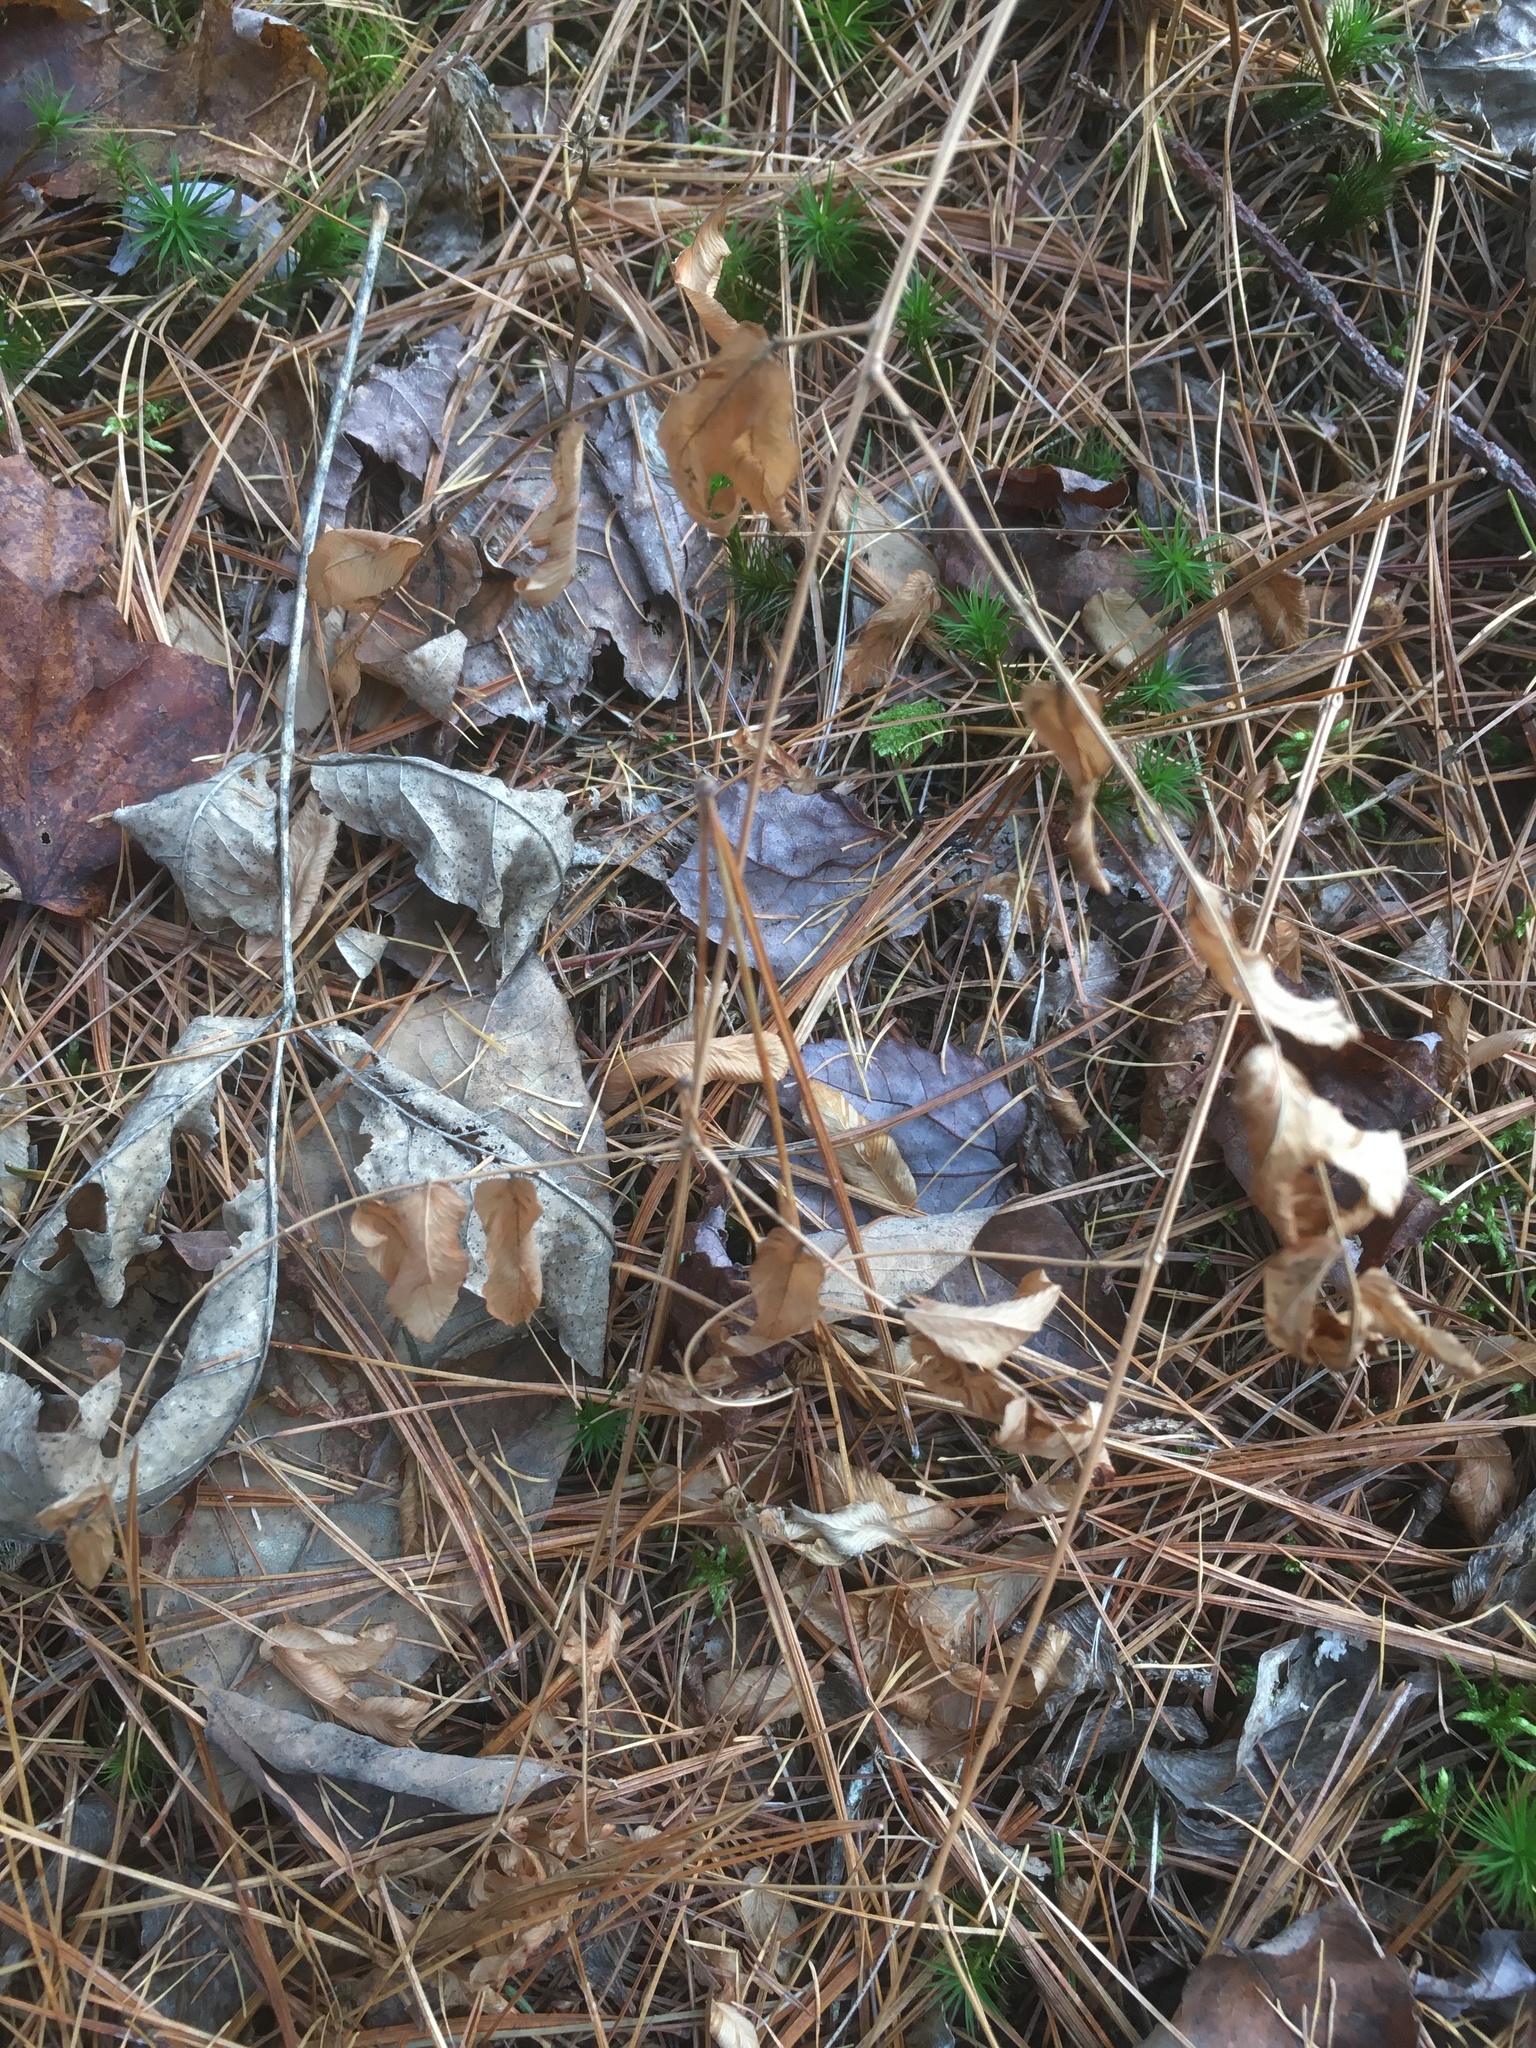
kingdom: Plantae
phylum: Tracheophyta
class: Polypodiopsida
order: Osmundales
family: Osmundaceae
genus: Osmunda
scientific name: Osmunda spectabilis
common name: American royal fern
